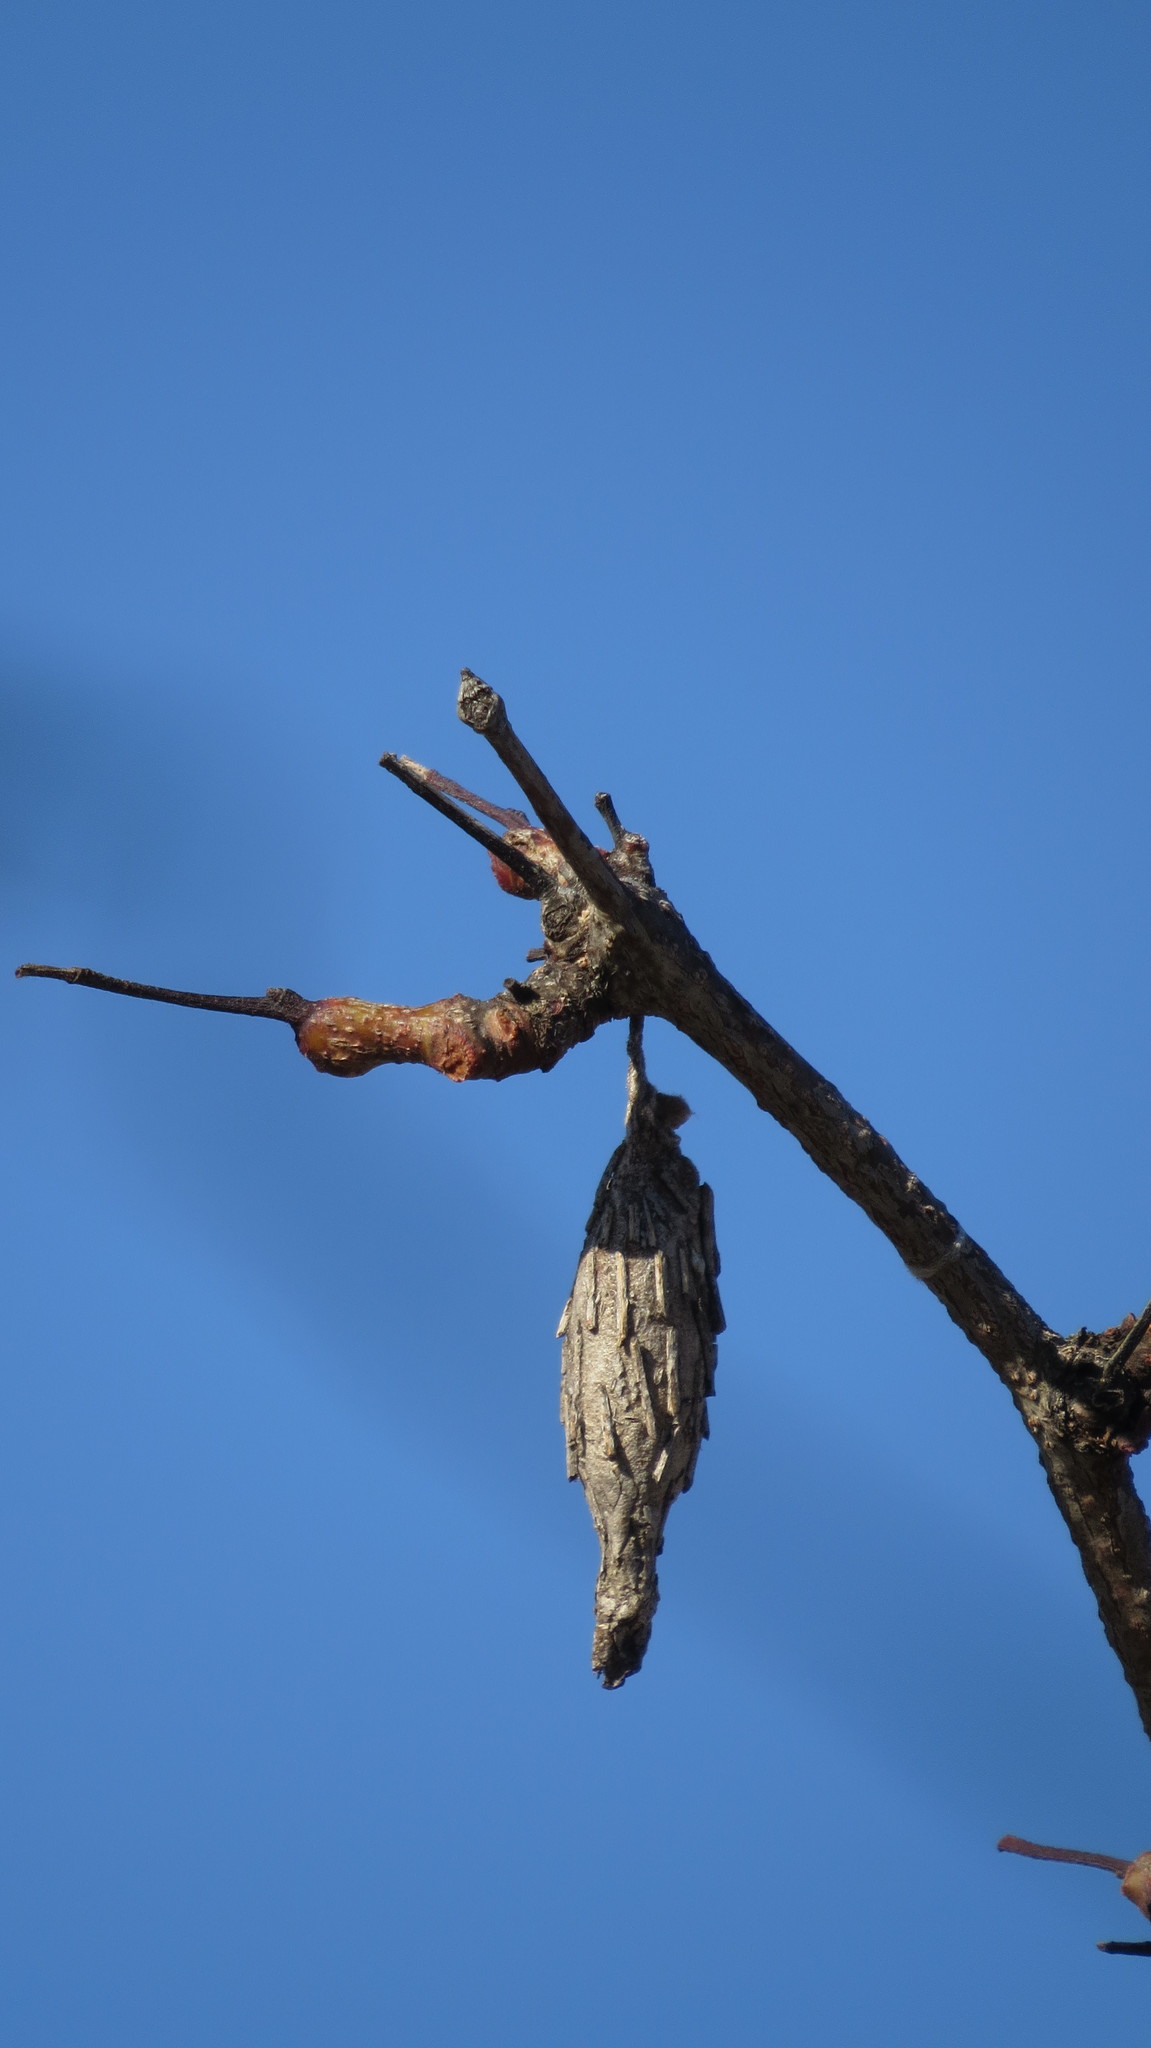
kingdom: Animalia
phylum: Arthropoda
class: Insecta
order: Lepidoptera
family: Psychidae
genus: Thyridopteryx
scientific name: Thyridopteryx ephemeraeformis
